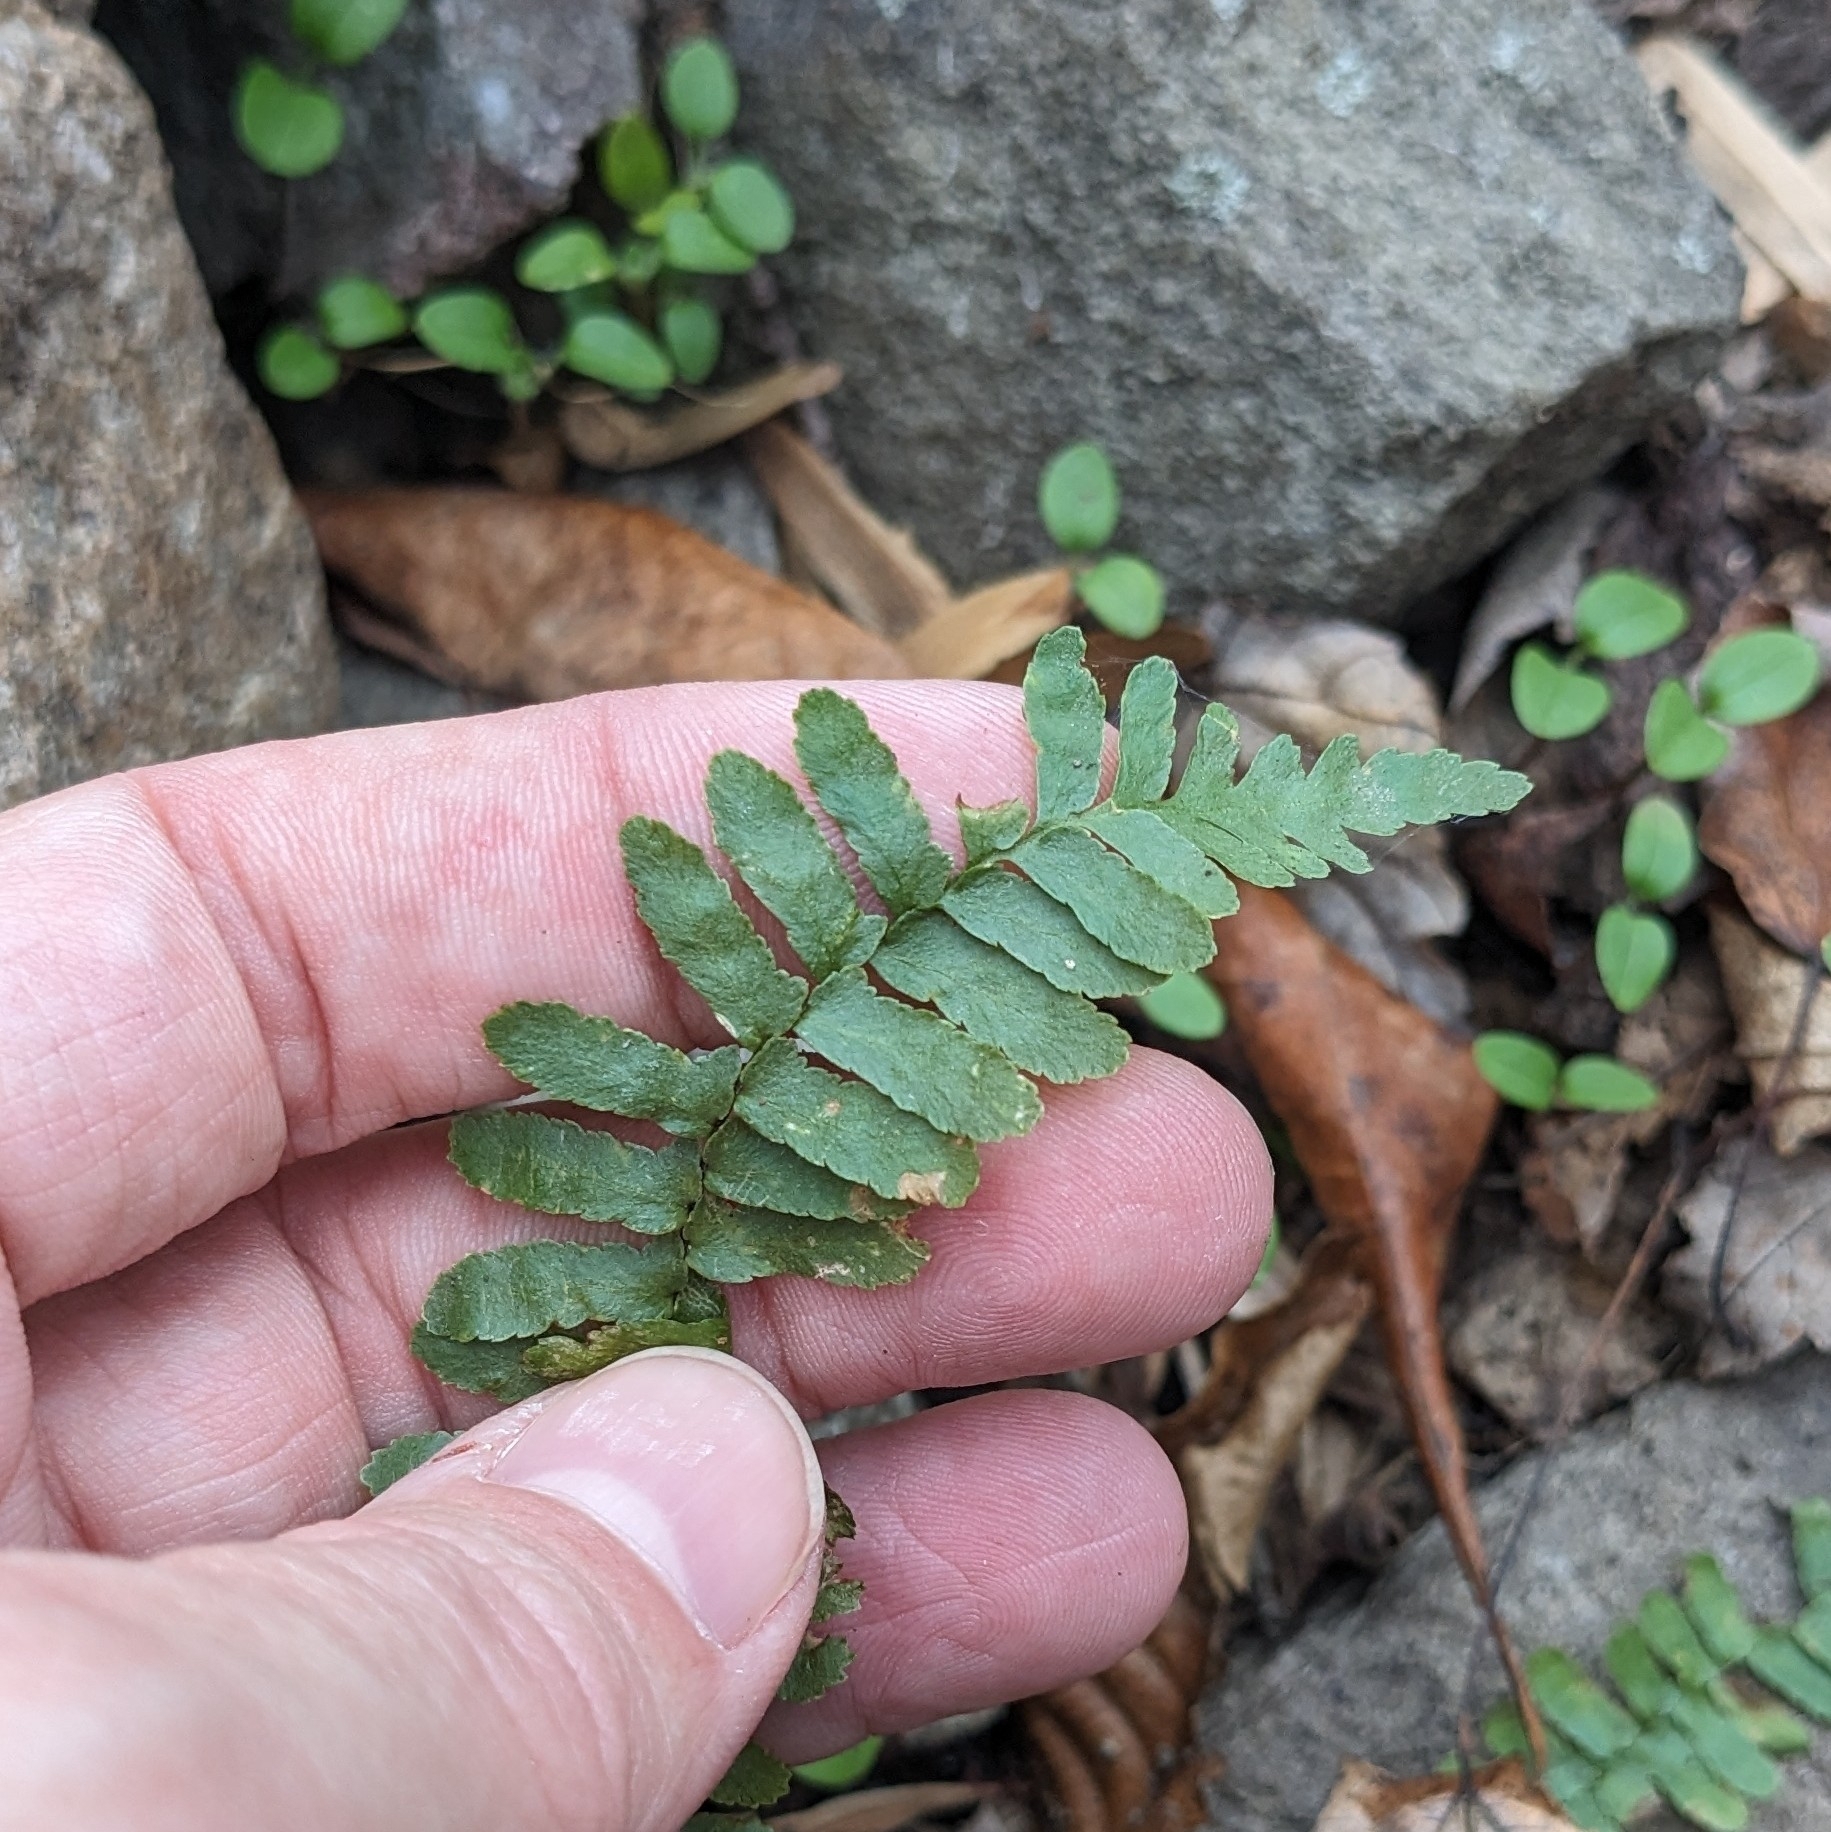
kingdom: Plantae
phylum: Tracheophyta
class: Polypodiopsida
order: Polypodiales
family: Aspleniaceae
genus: Asplenium
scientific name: Asplenium platyneuron
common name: Ebony spleenwort
